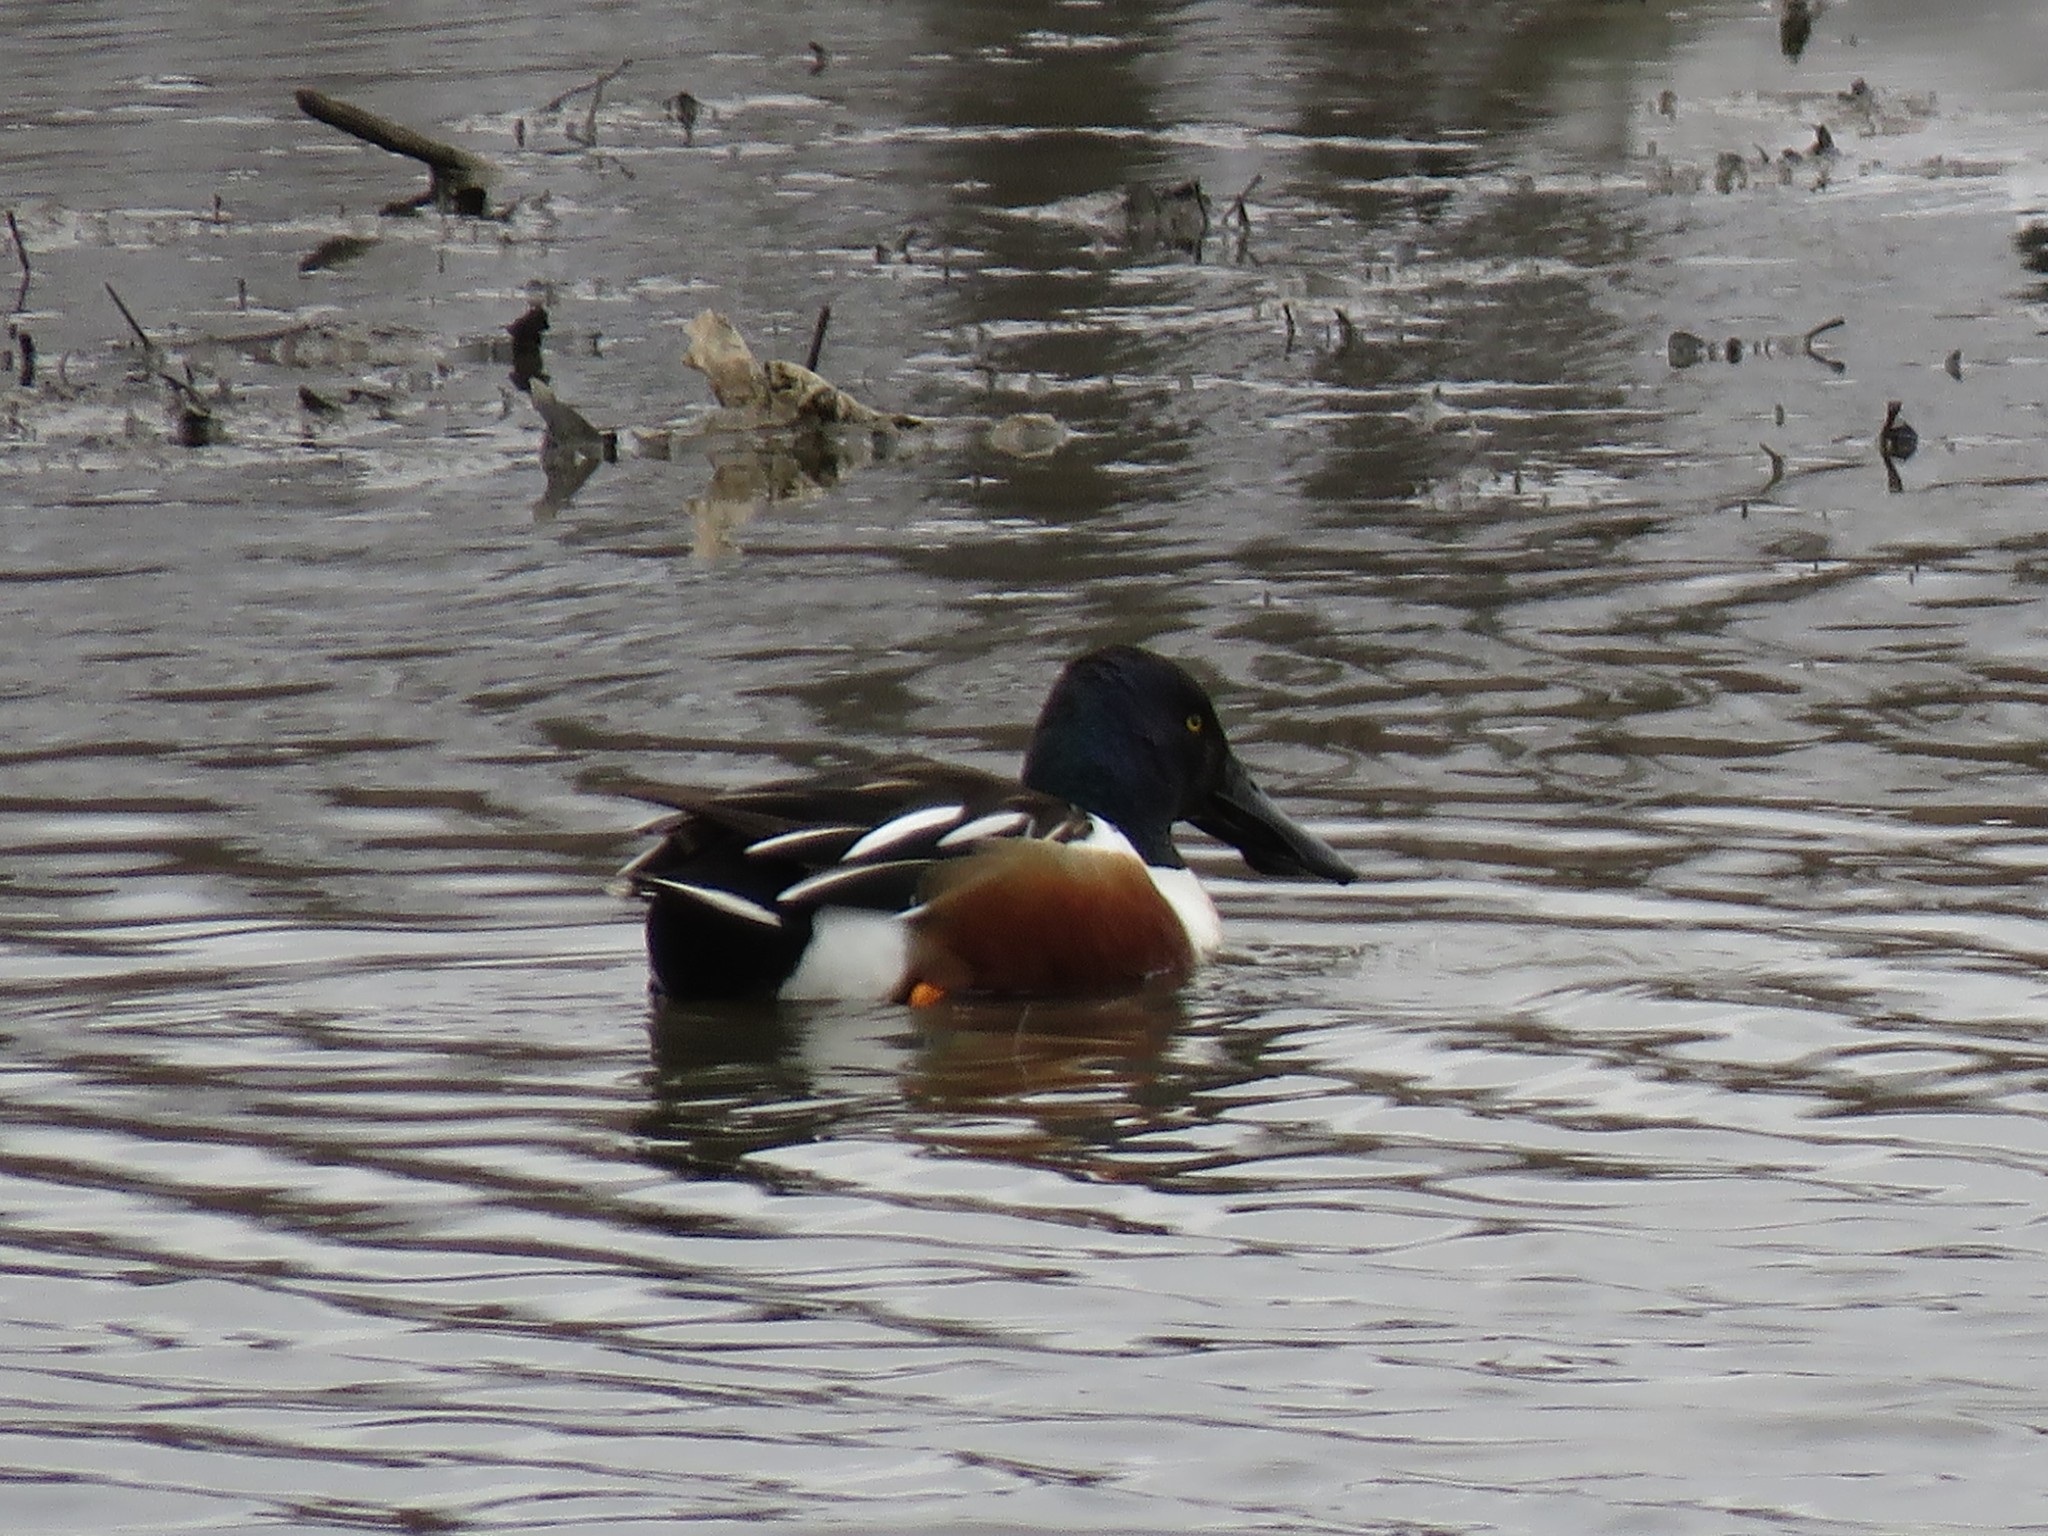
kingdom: Animalia
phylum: Chordata
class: Aves
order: Anseriformes
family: Anatidae
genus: Spatula
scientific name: Spatula clypeata
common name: Northern shoveler
